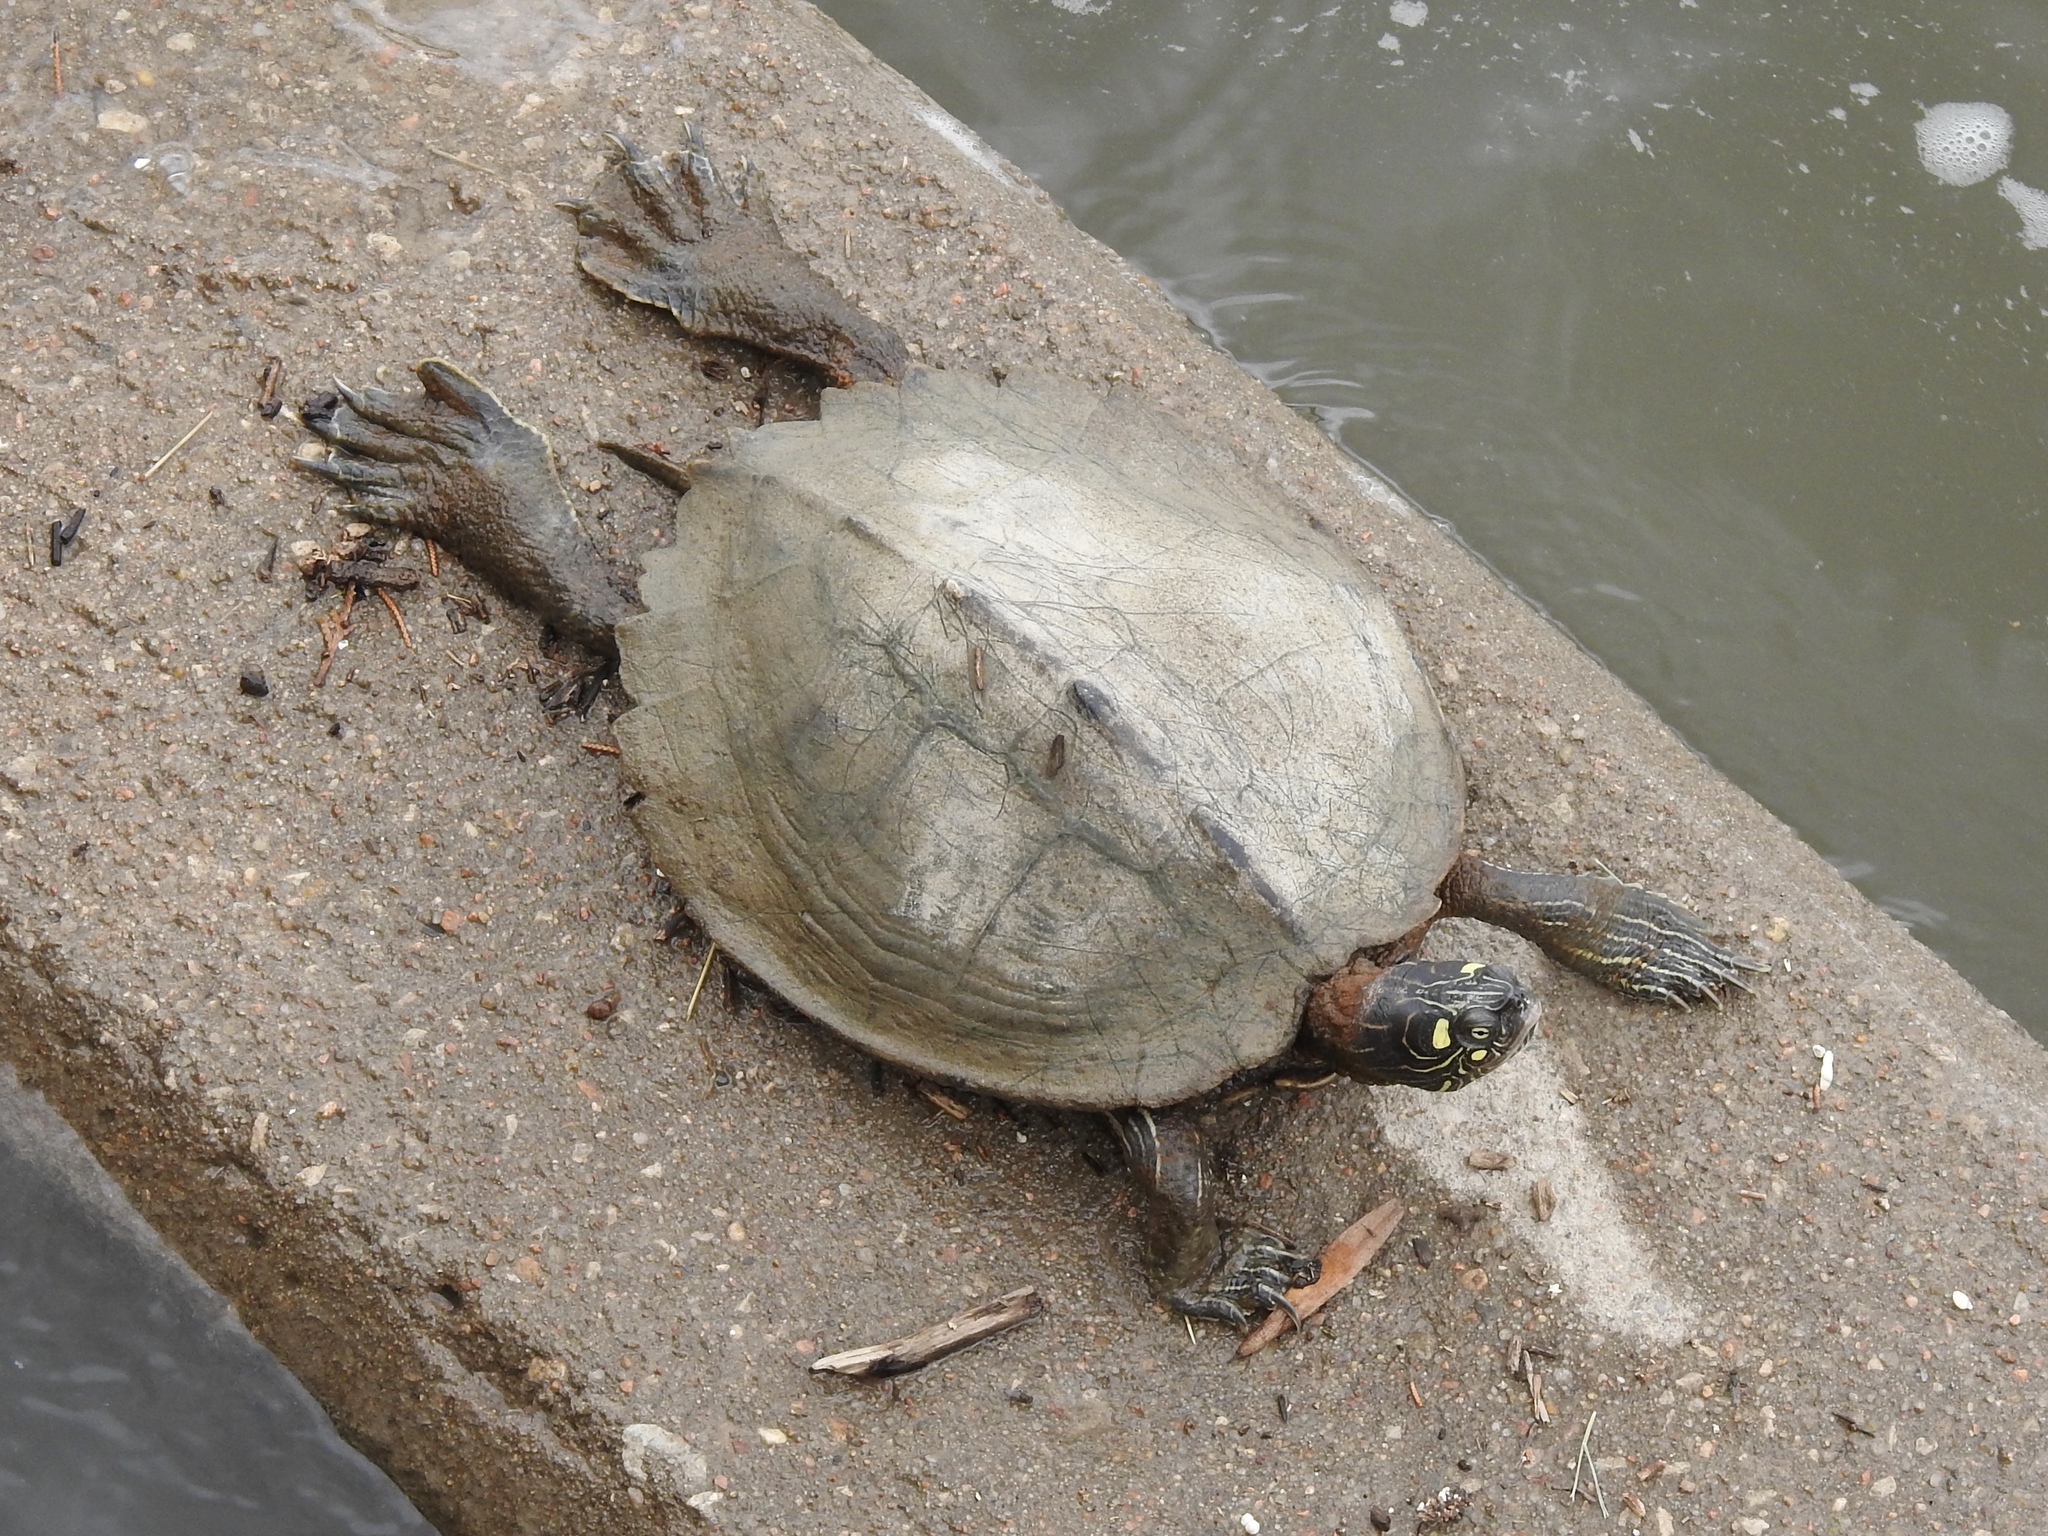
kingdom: Animalia
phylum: Chordata
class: Testudines
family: Emydidae
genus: Graptemys
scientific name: Graptemys ouachitensis
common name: Ouachita map turtle
